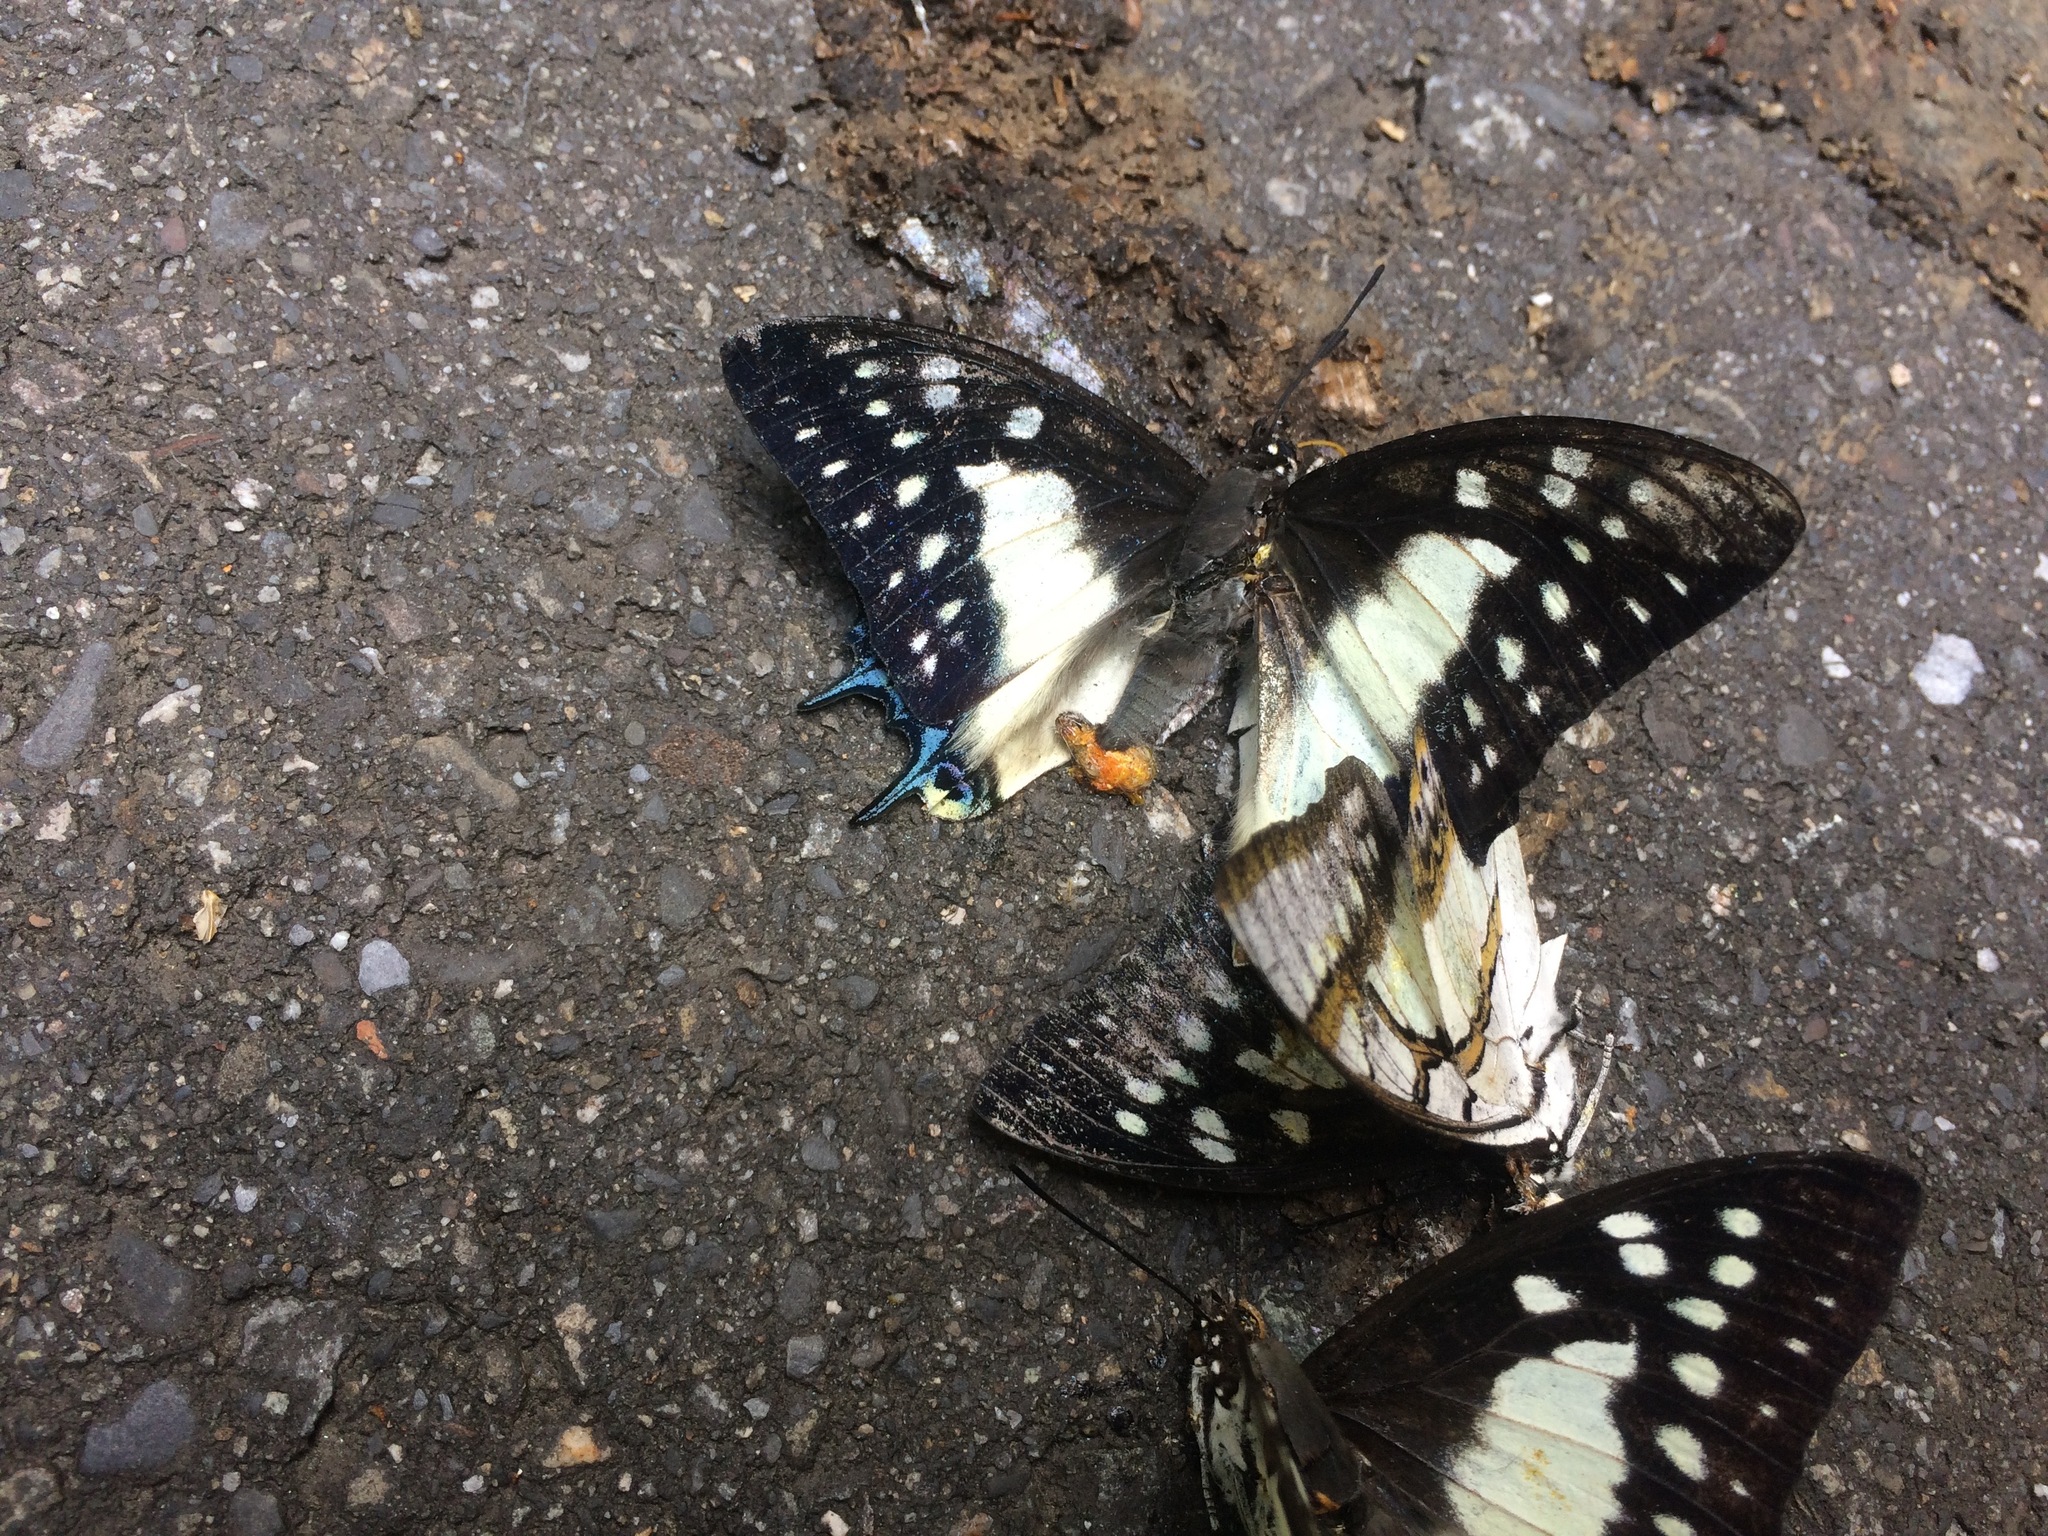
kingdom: Animalia
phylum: Arthropoda
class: Insecta
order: Lepidoptera
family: Nymphalidae
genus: Polyura
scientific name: Polyura eudamippus
